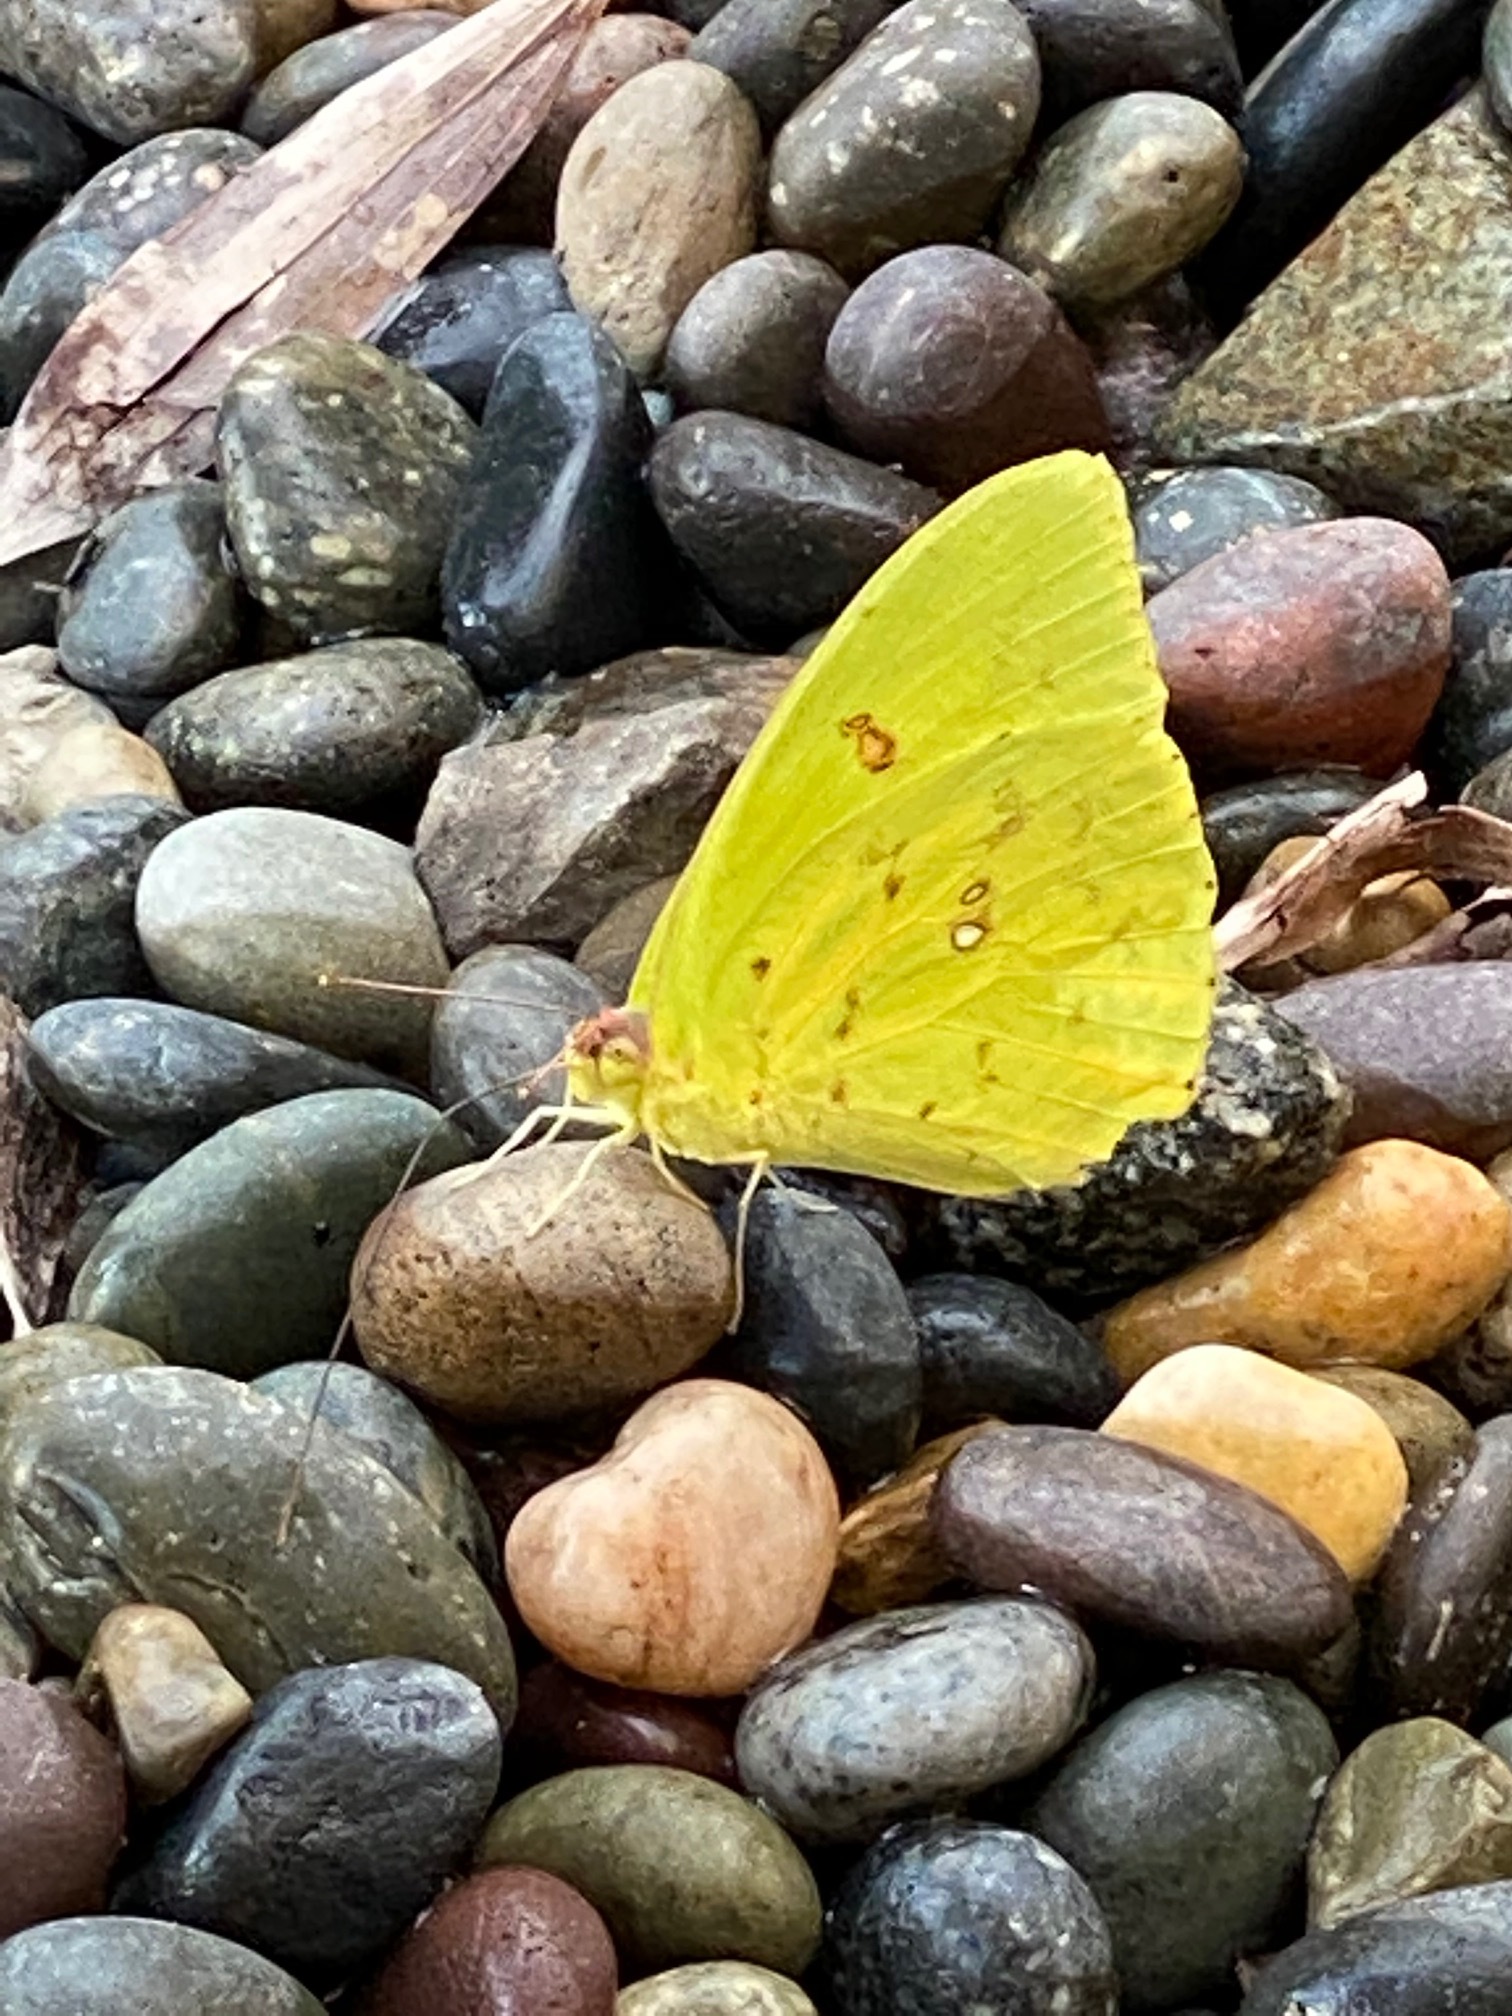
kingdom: Animalia
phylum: Arthropoda
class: Insecta
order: Lepidoptera
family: Pieridae
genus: Phoebis
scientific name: Phoebis sennae
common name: Cloudless sulphur
